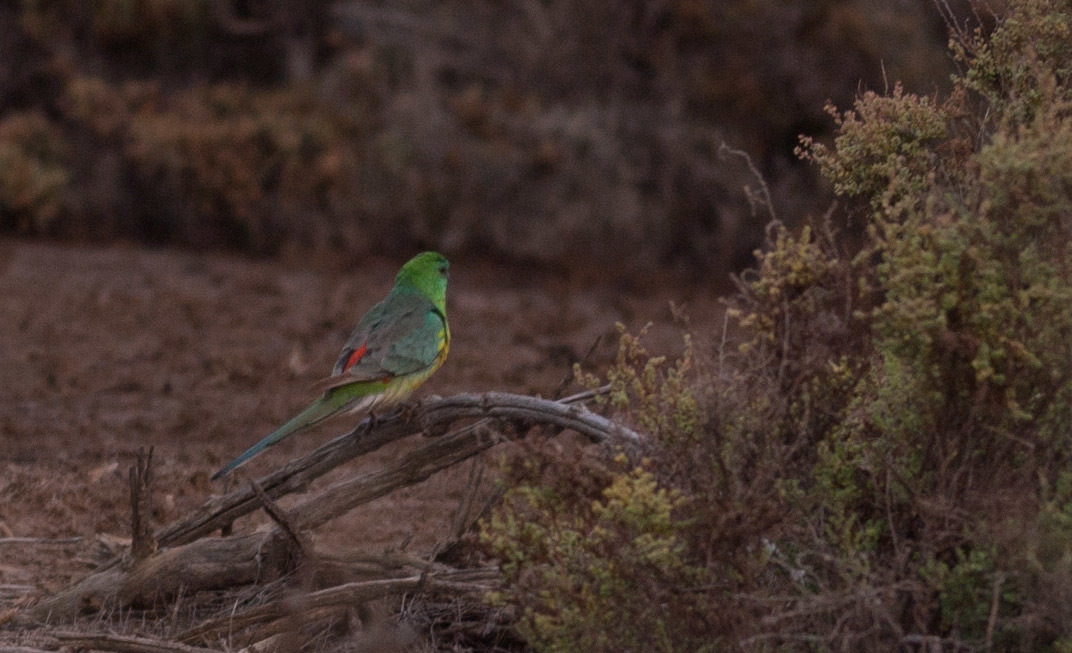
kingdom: Animalia
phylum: Chordata
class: Aves
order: Psittaciformes
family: Psittacidae
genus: Psephotus
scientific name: Psephotus haematonotus
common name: Red-rumped parrot
